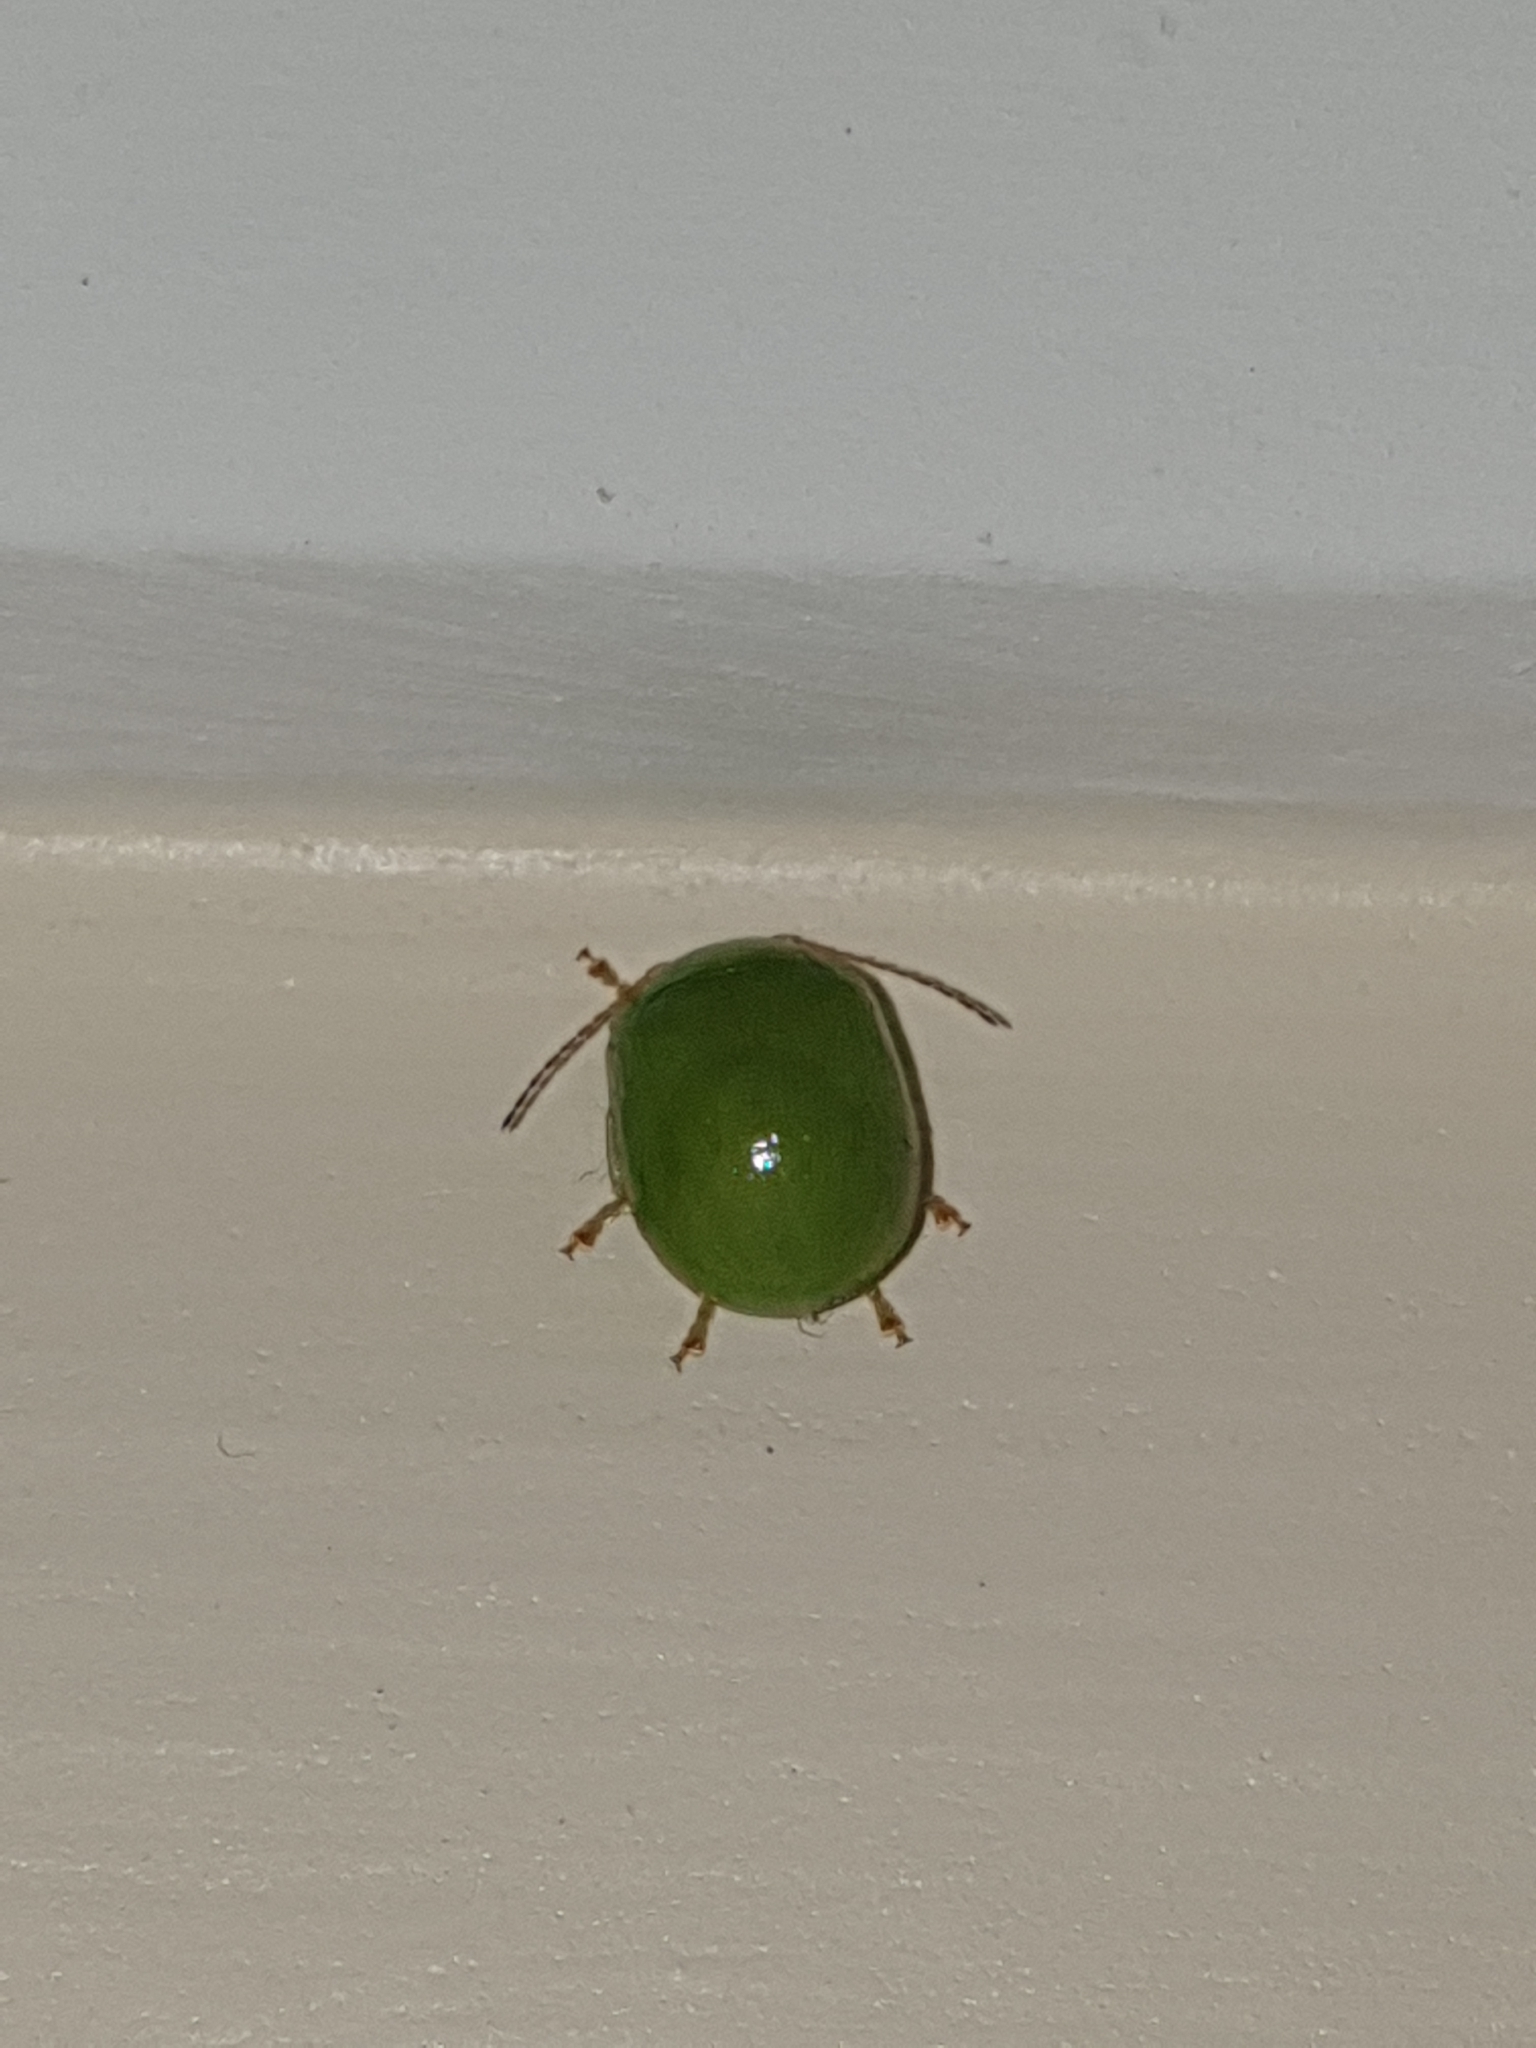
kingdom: Animalia
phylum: Arthropoda
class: Insecta
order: Coleoptera
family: Chrysomelidae
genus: Paropsides
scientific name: Paropsides
